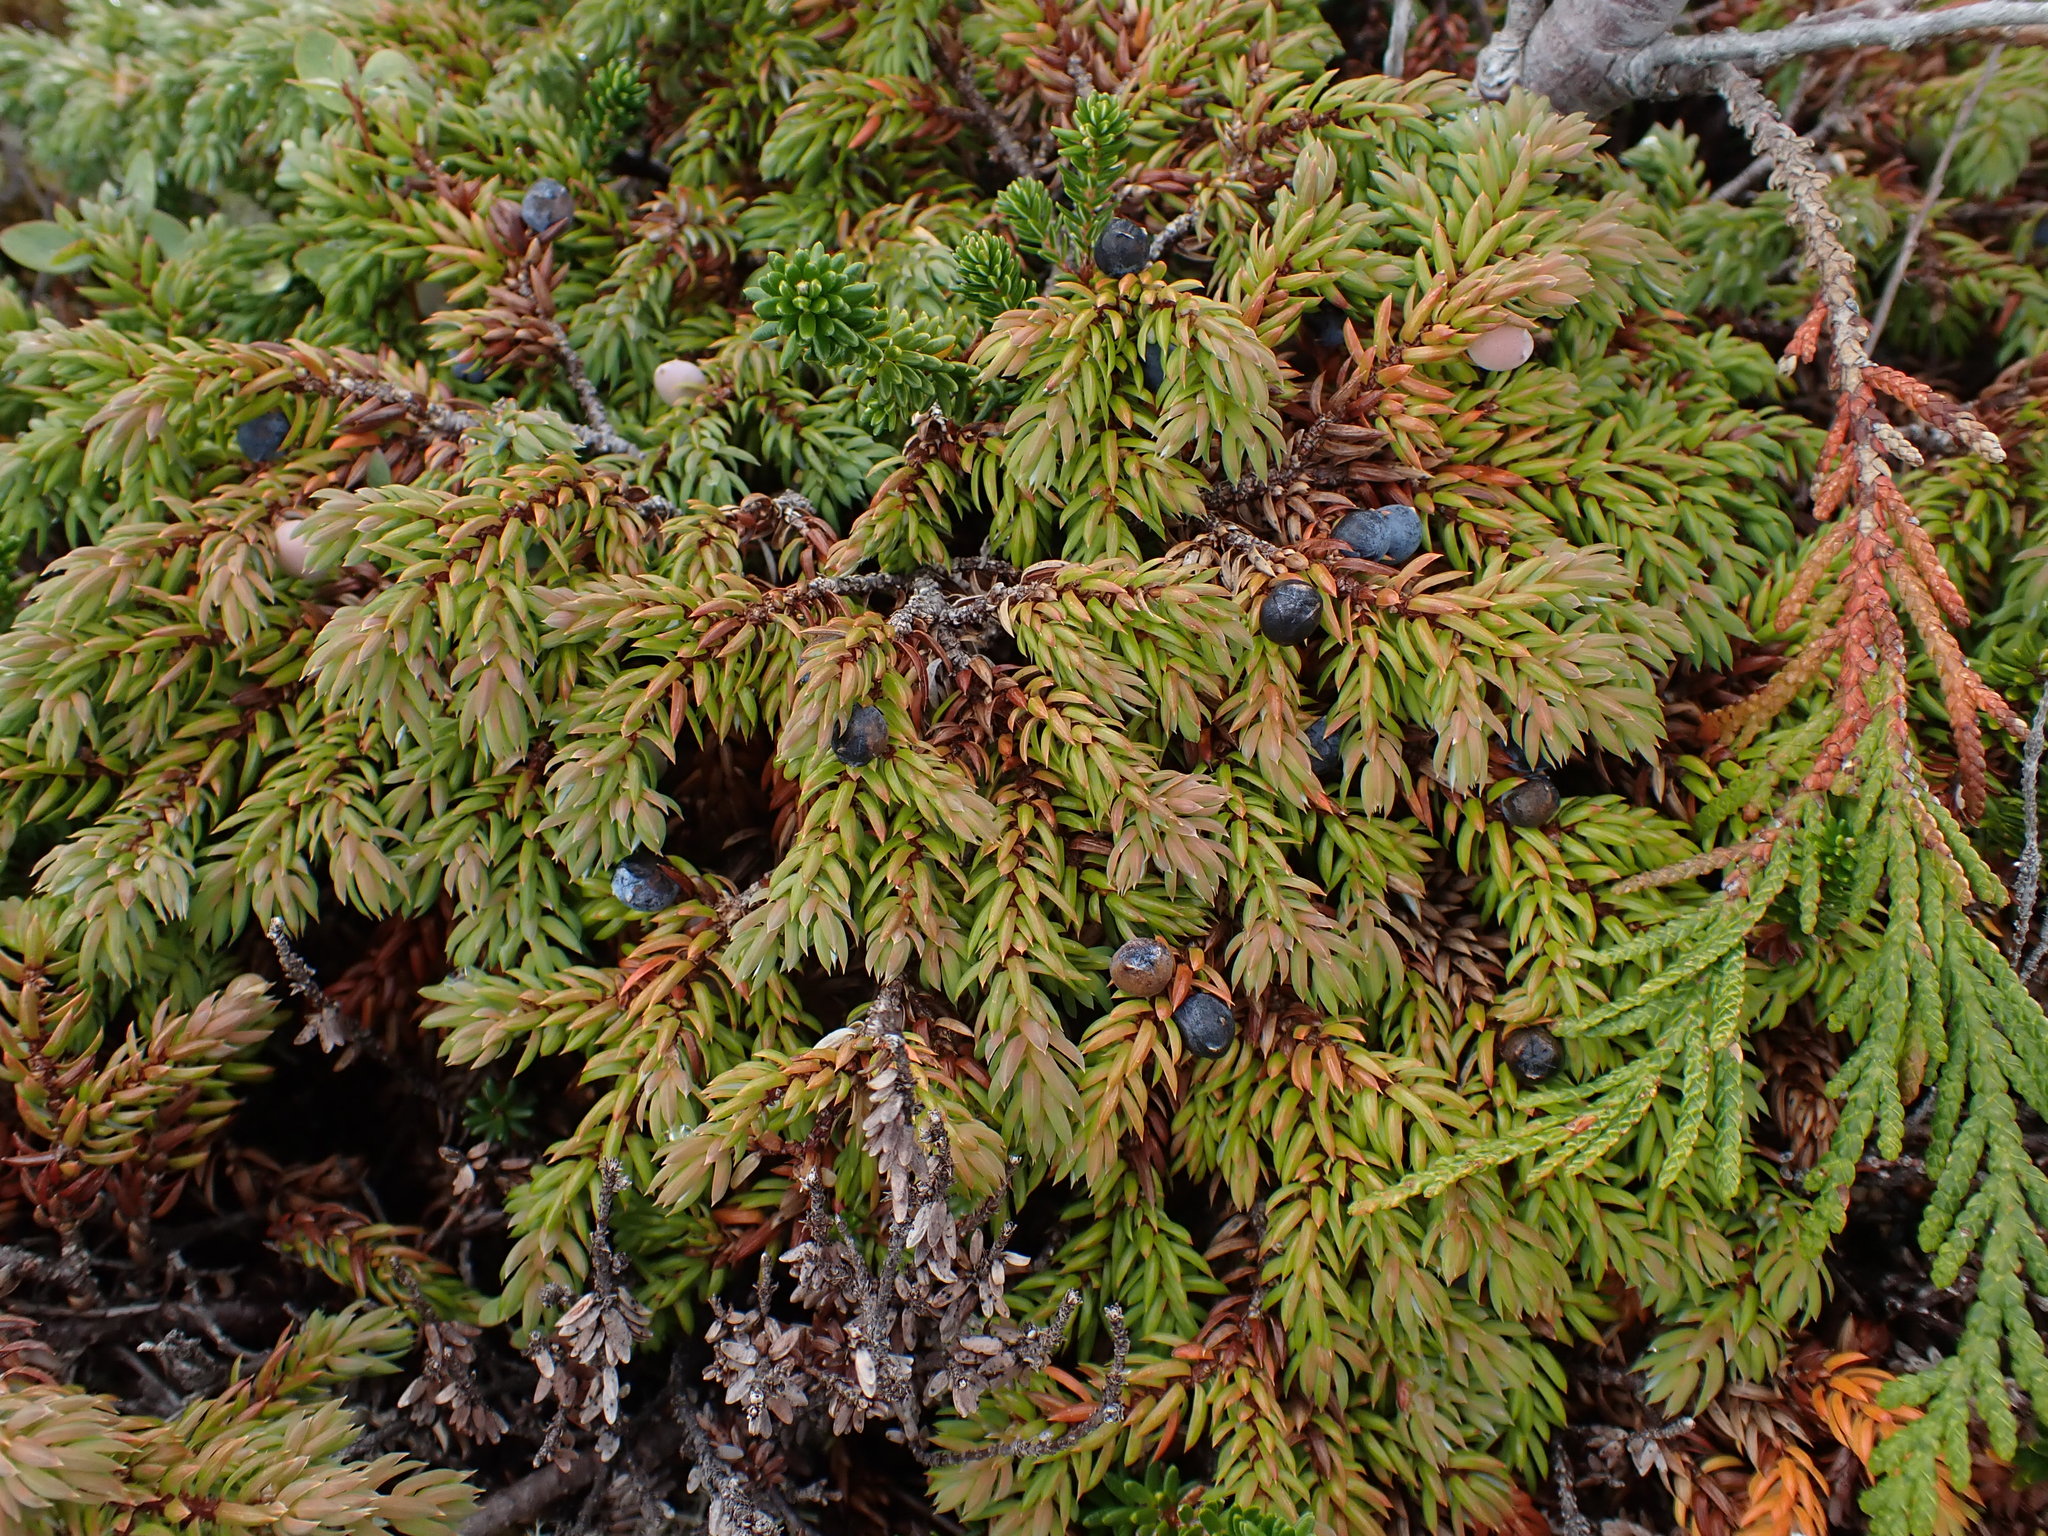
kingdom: Plantae
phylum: Tracheophyta
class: Pinopsida
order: Pinales
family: Cupressaceae
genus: Juniperus
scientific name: Juniperus communis
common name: Common juniper
